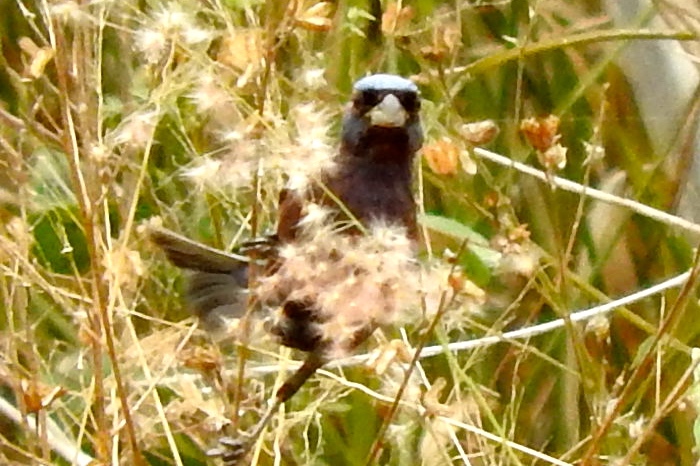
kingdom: Animalia
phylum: Chordata
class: Aves
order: Passeriformes
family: Cardinalidae
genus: Passerina
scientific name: Passerina versicolor
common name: Varied bunting
